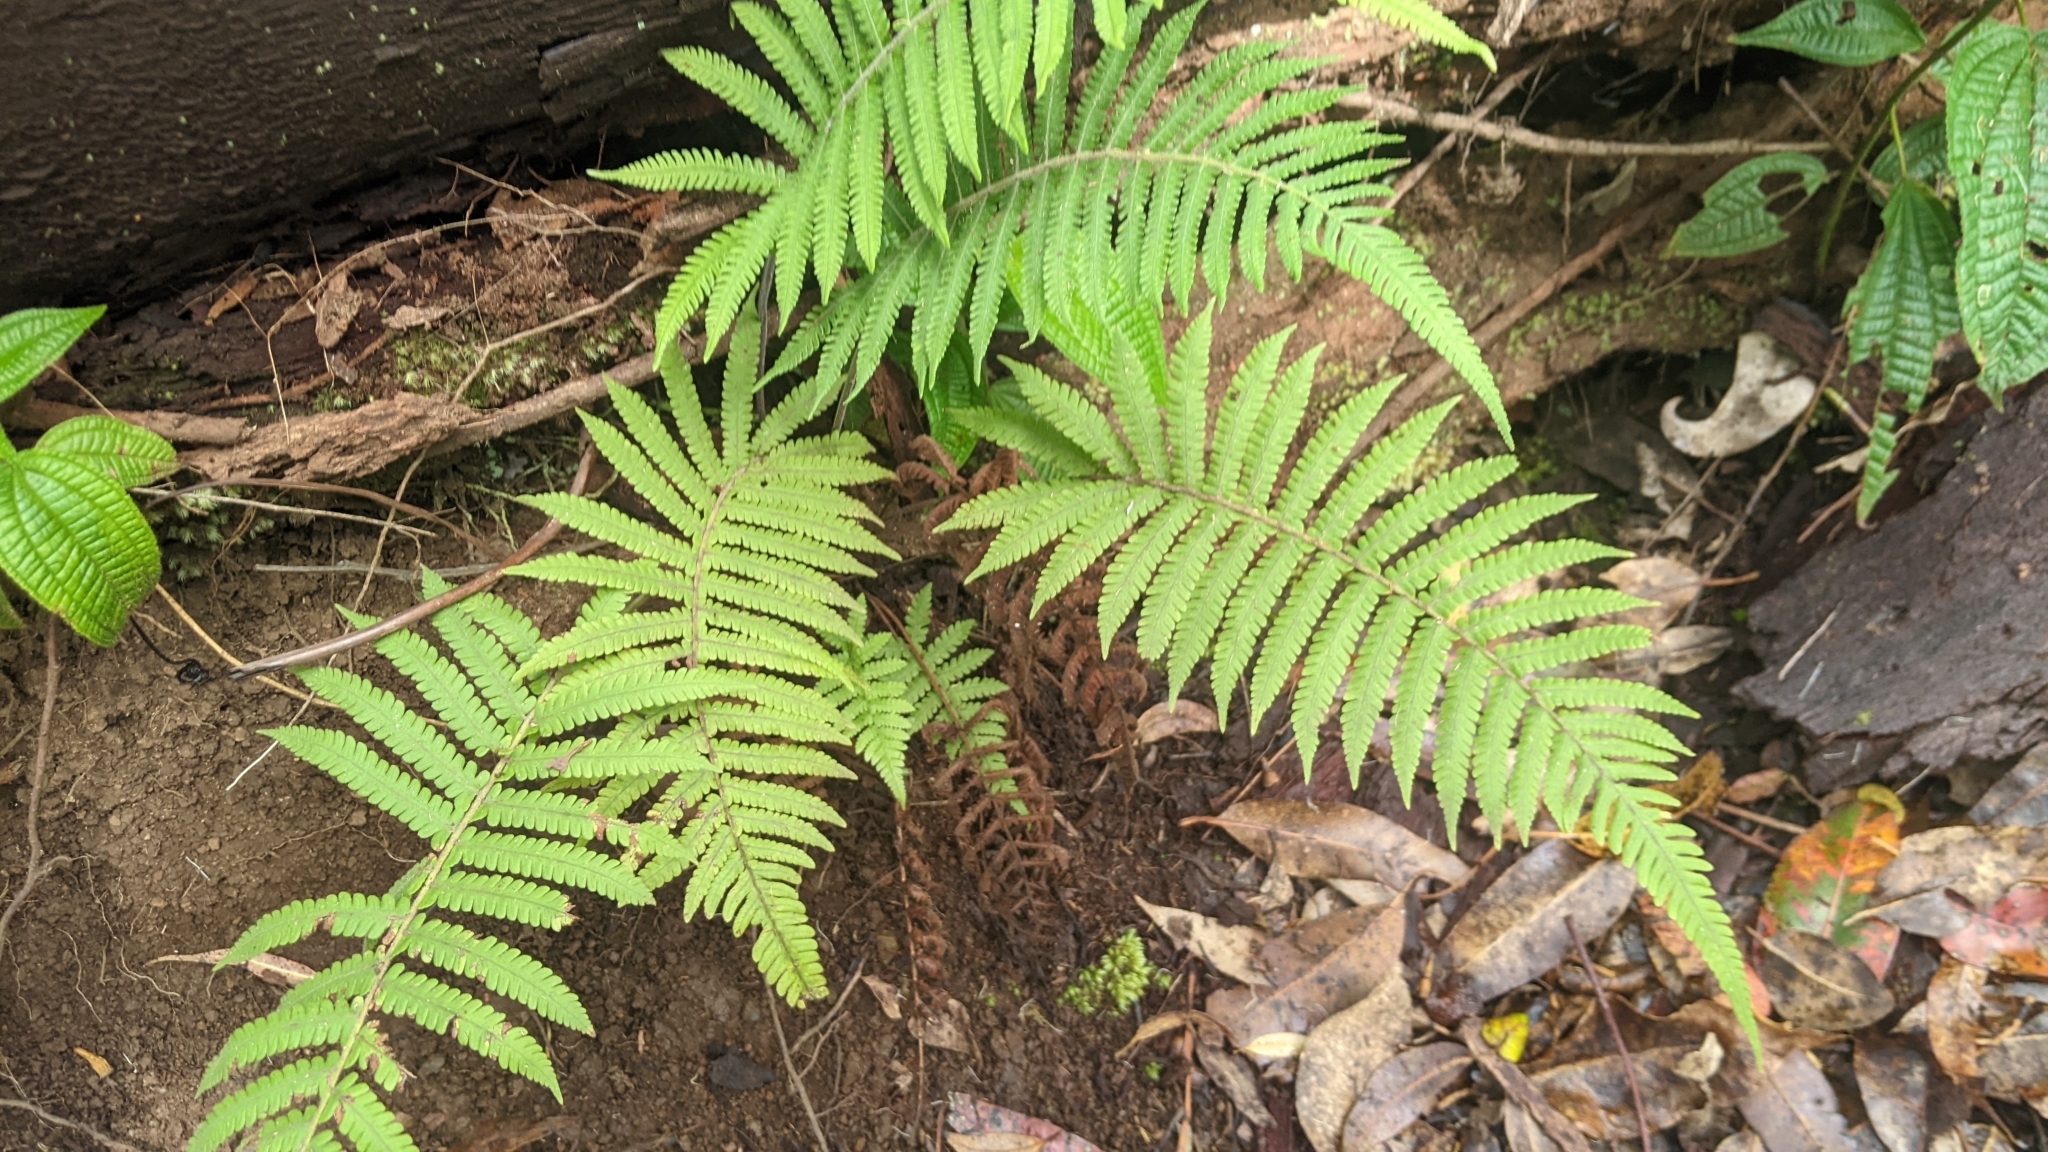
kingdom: Plantae
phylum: Tracheophyta
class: Polypodiopsida
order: Polypodiales
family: Thelypteridaceae
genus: Christella
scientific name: Christella parasitica
